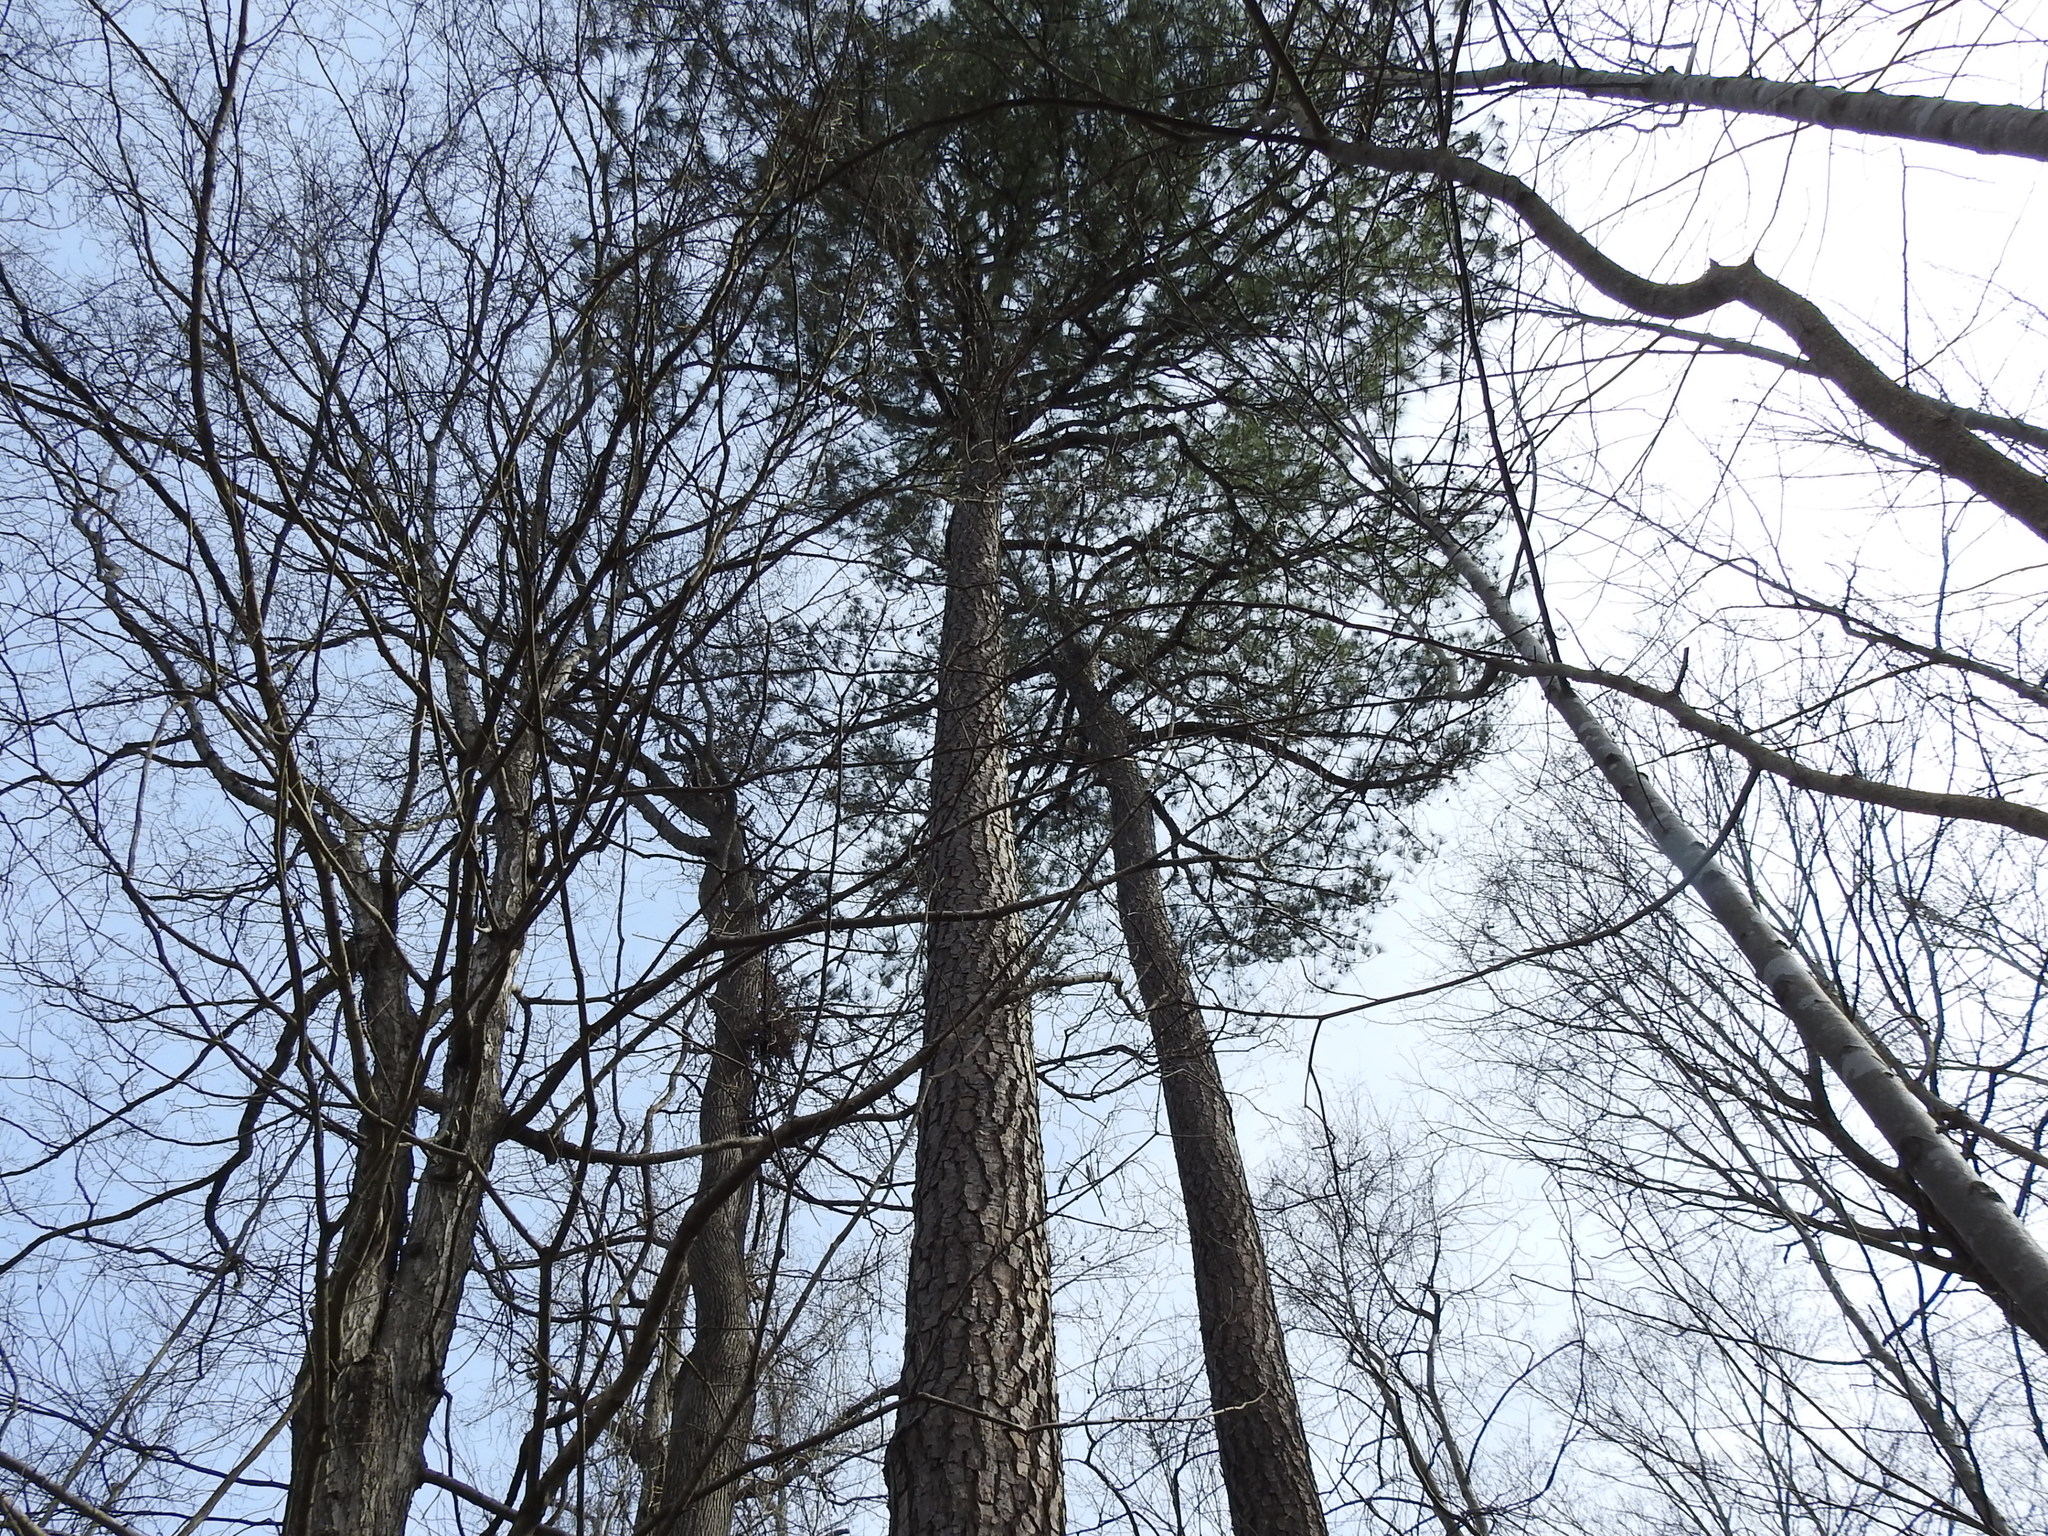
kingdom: Plantae
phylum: Tracheophyta
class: Pinopsida
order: Pinales
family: Pinaceae
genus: Pinus
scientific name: Pinus taeda
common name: Loblolly pine
